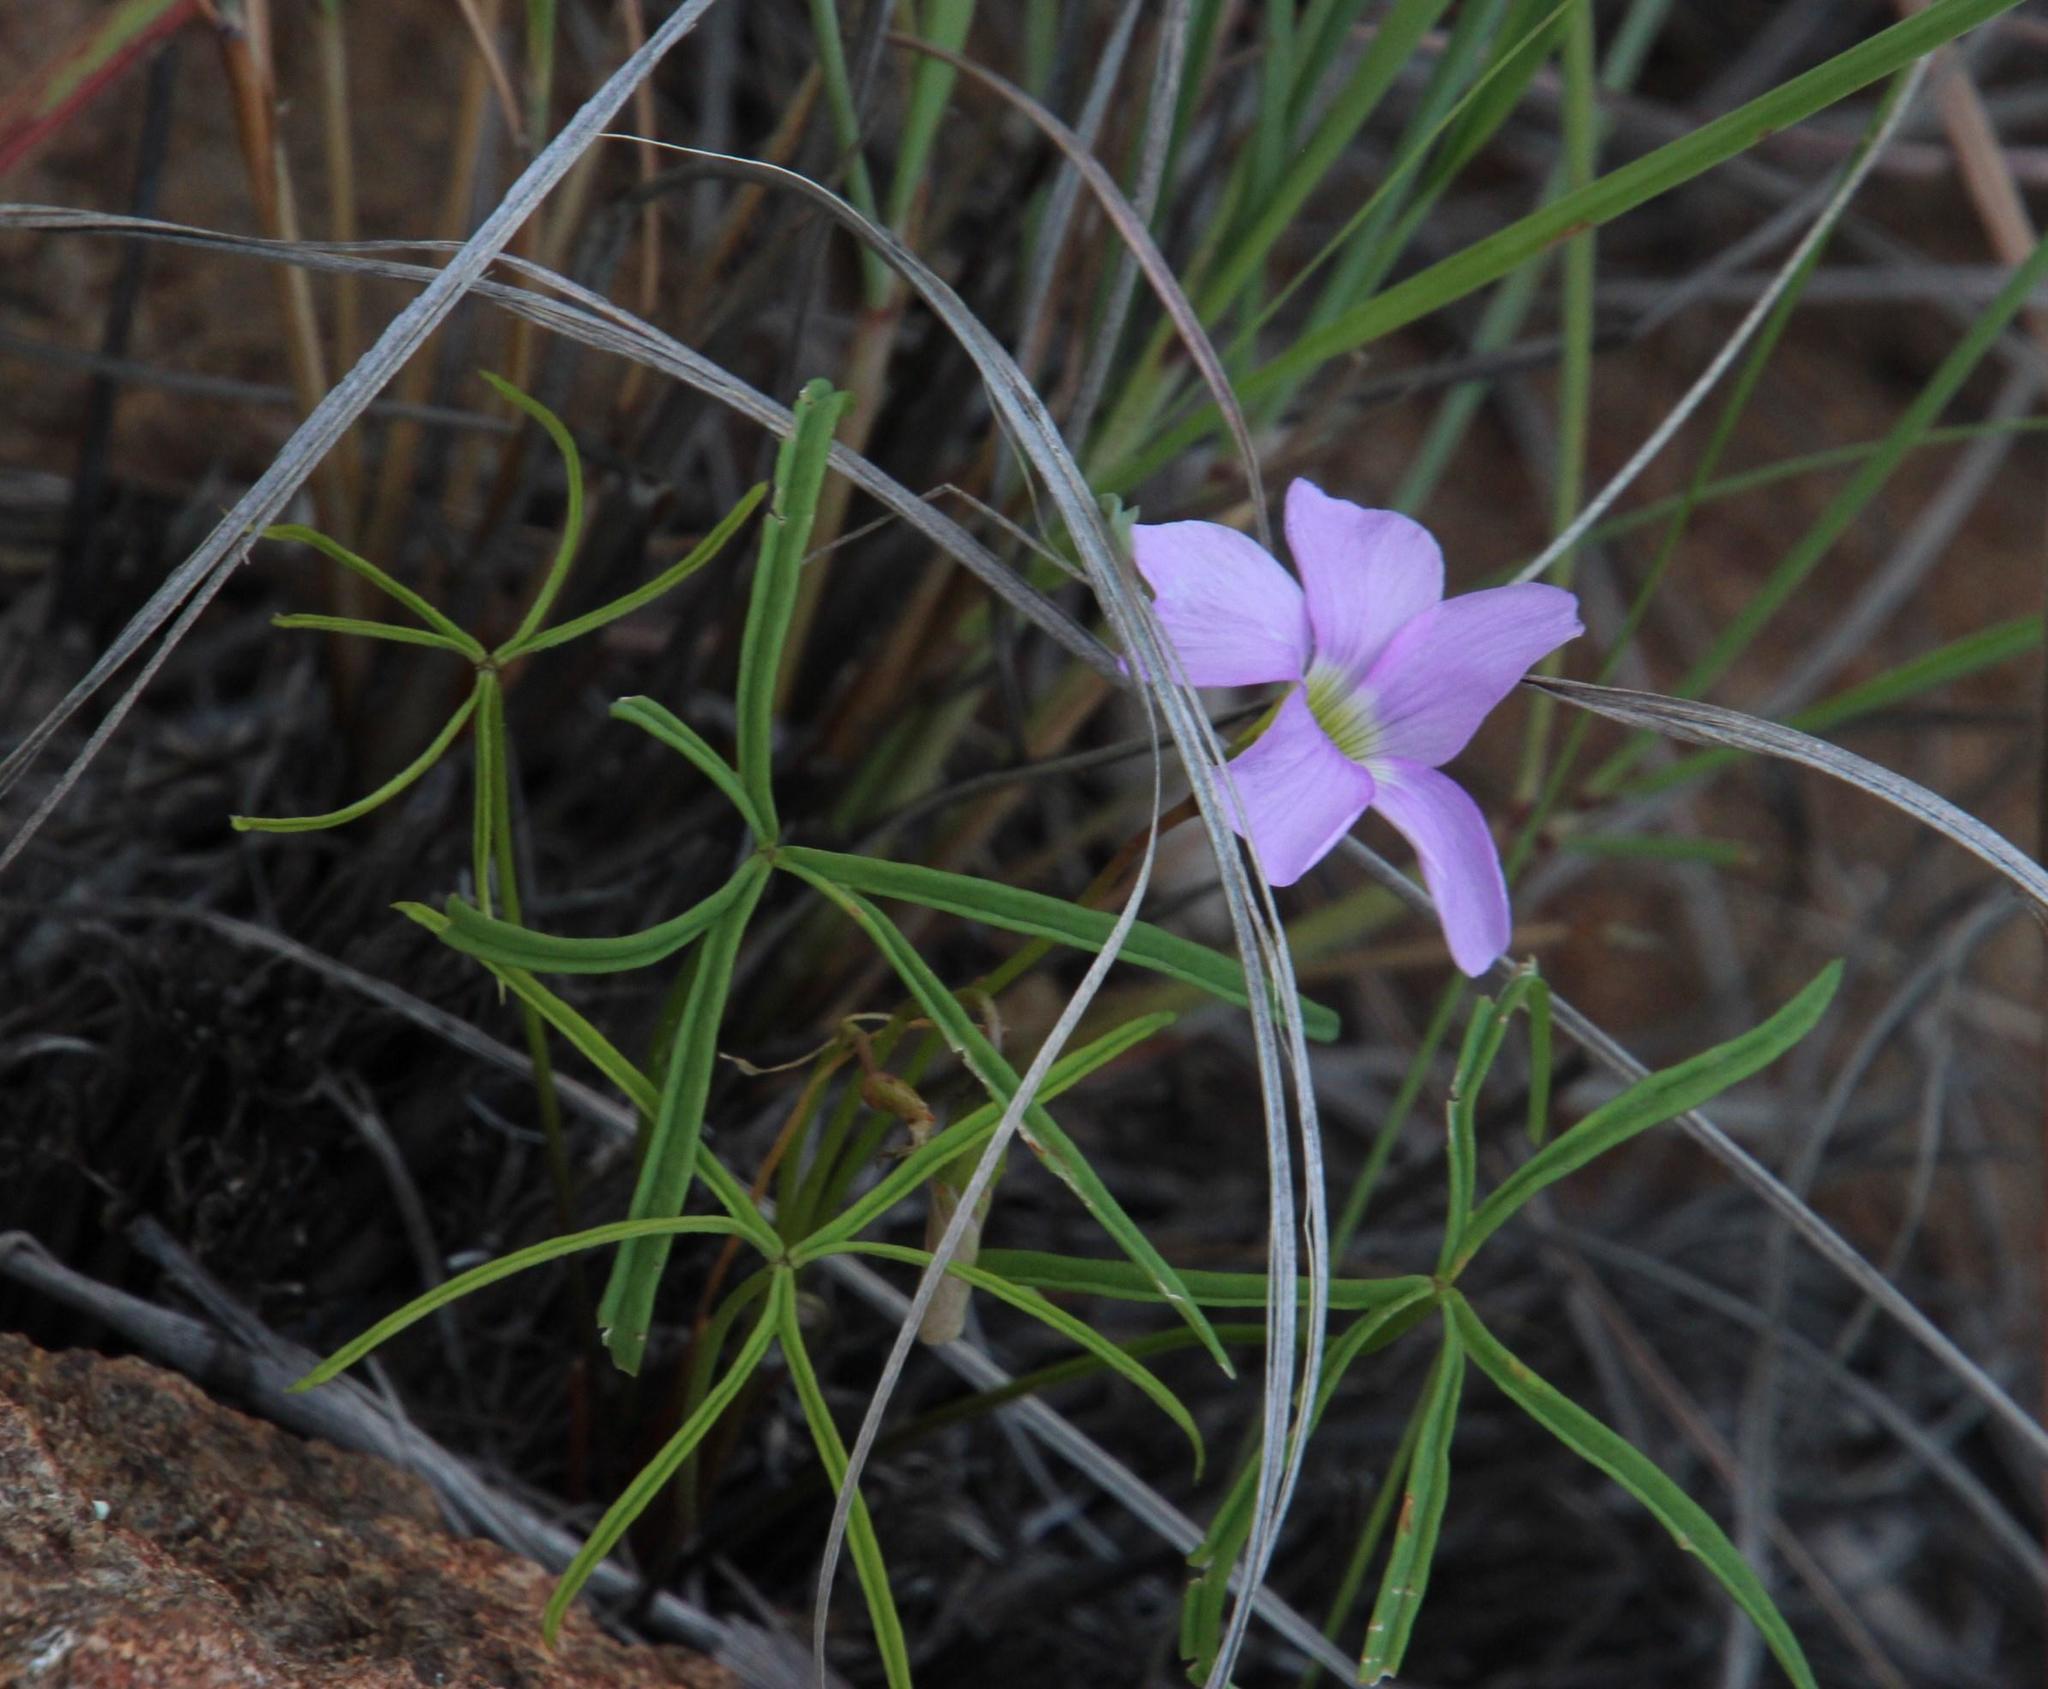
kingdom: Plantae
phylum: Tracheophyta
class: Magnoliopsida
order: Oxalidales
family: Oxalidaceae
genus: Oxalis
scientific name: Oxalis smithiana
